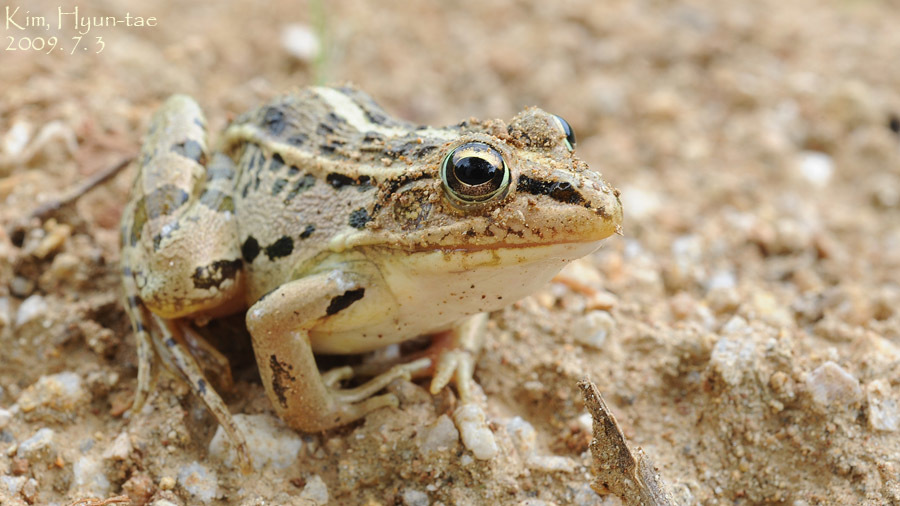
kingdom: Animalia
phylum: Chordata
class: Amphibia
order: Anura
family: Ranidae
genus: Pelophylax
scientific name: Pelophylax nigromaculatus
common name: Black-spotted pond frog
